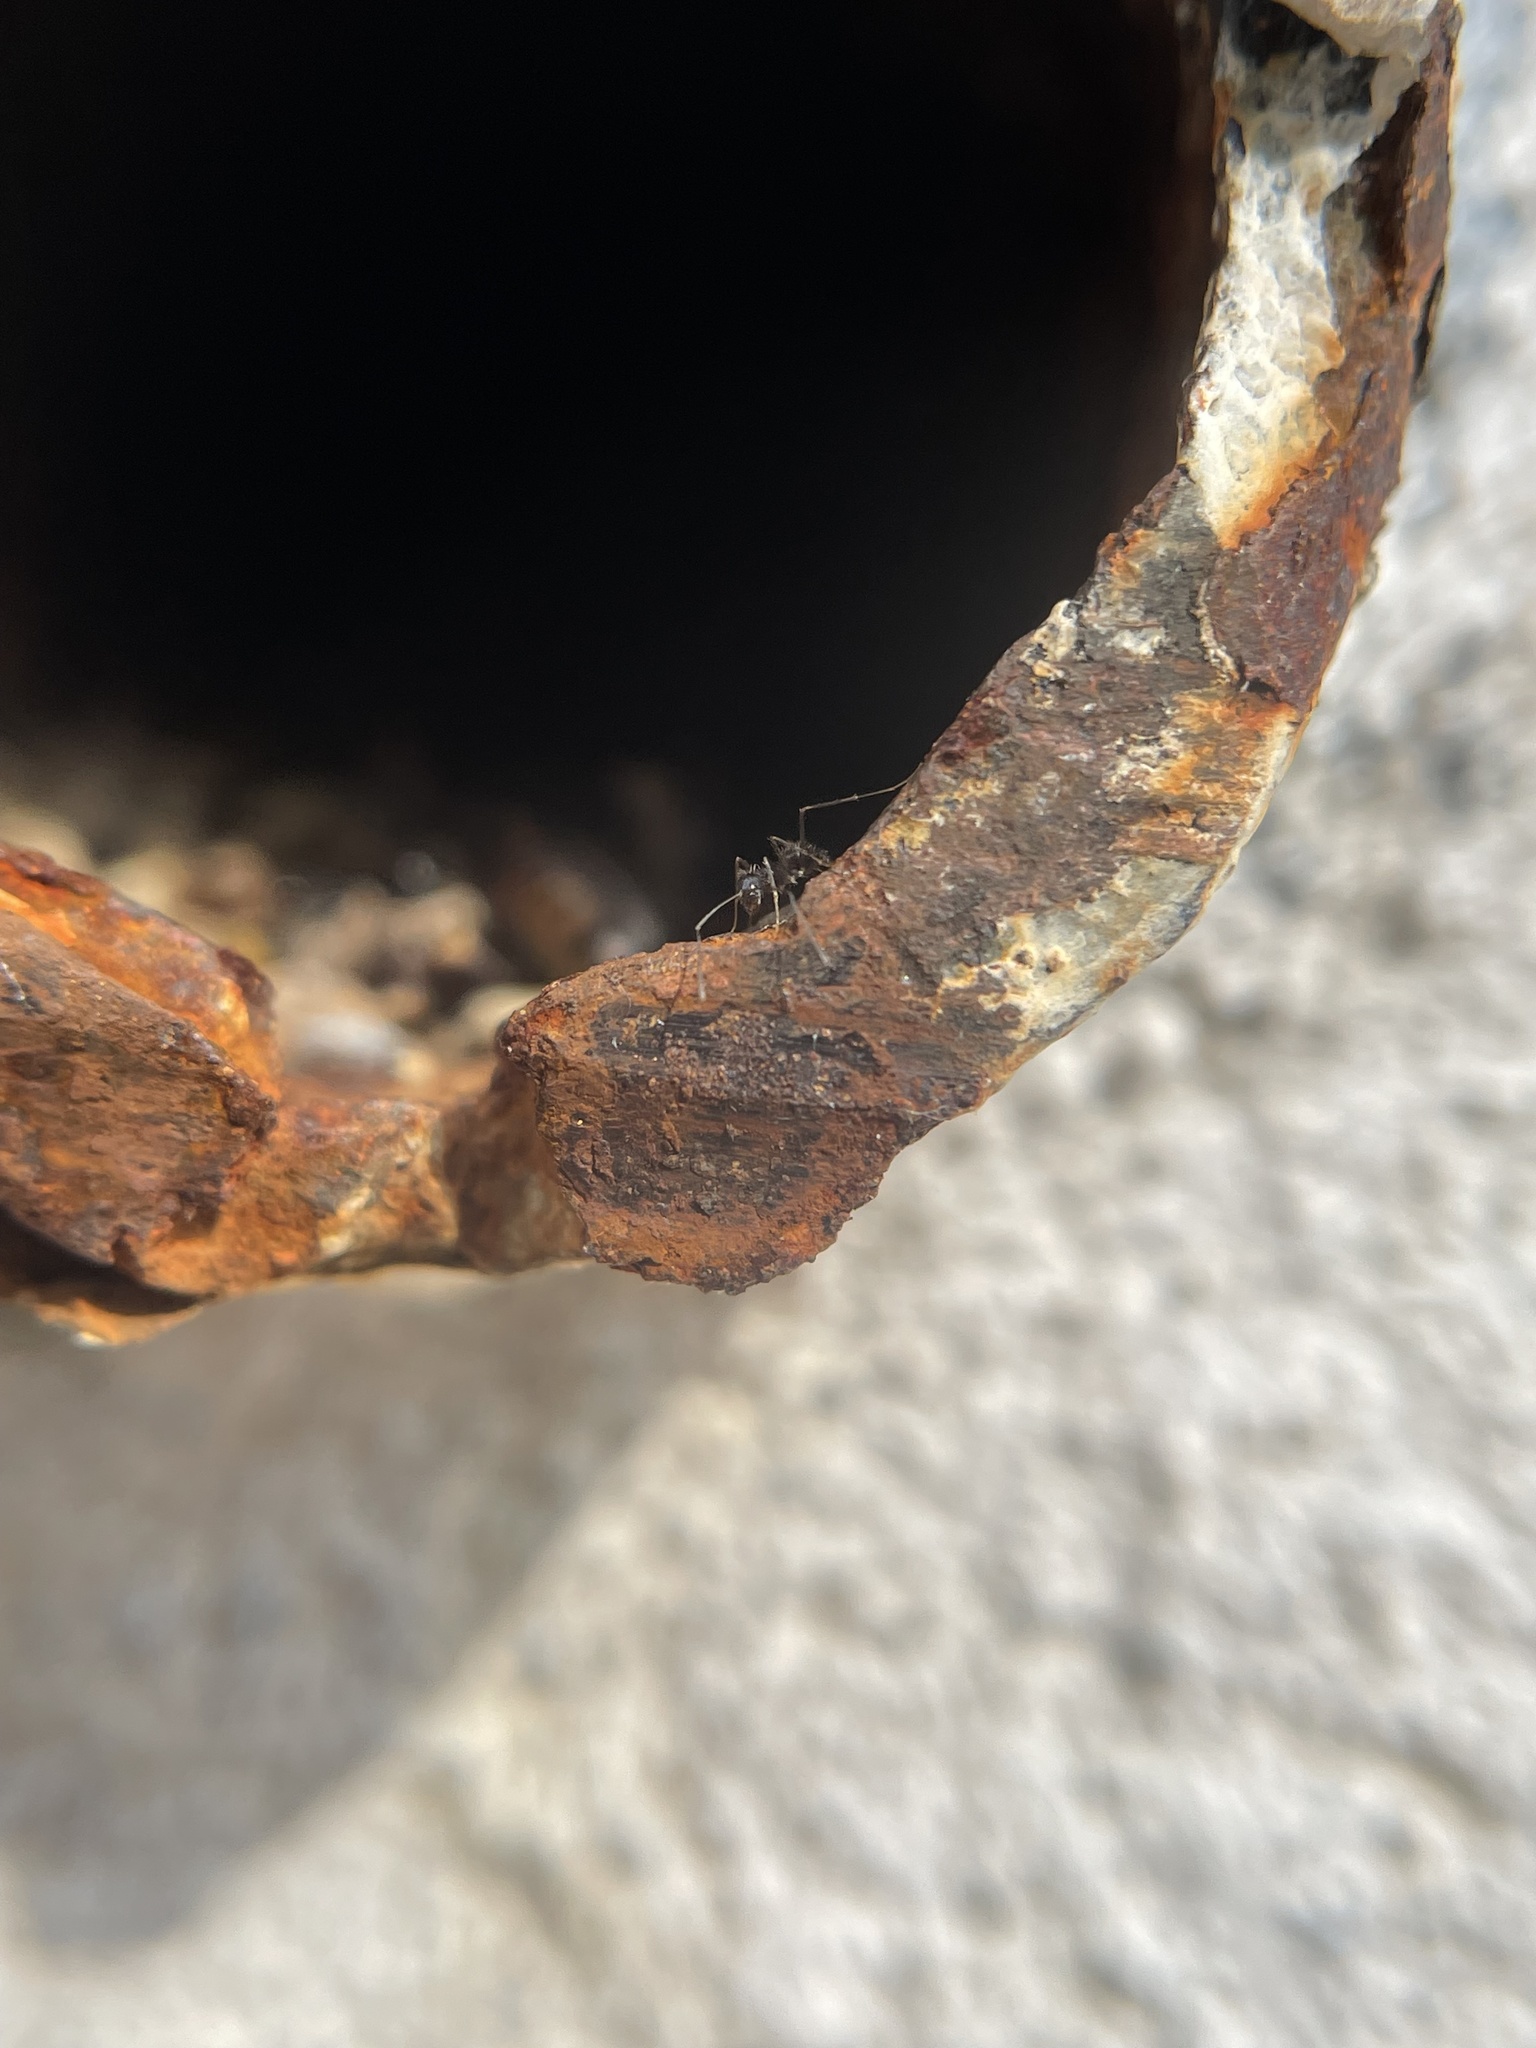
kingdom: Animalia
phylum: Arthropoda
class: Insecta
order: Hymenoptera
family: Formicidae
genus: Paratrechina
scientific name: Paratrechina longicornis
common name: Longhorned crazy ant
